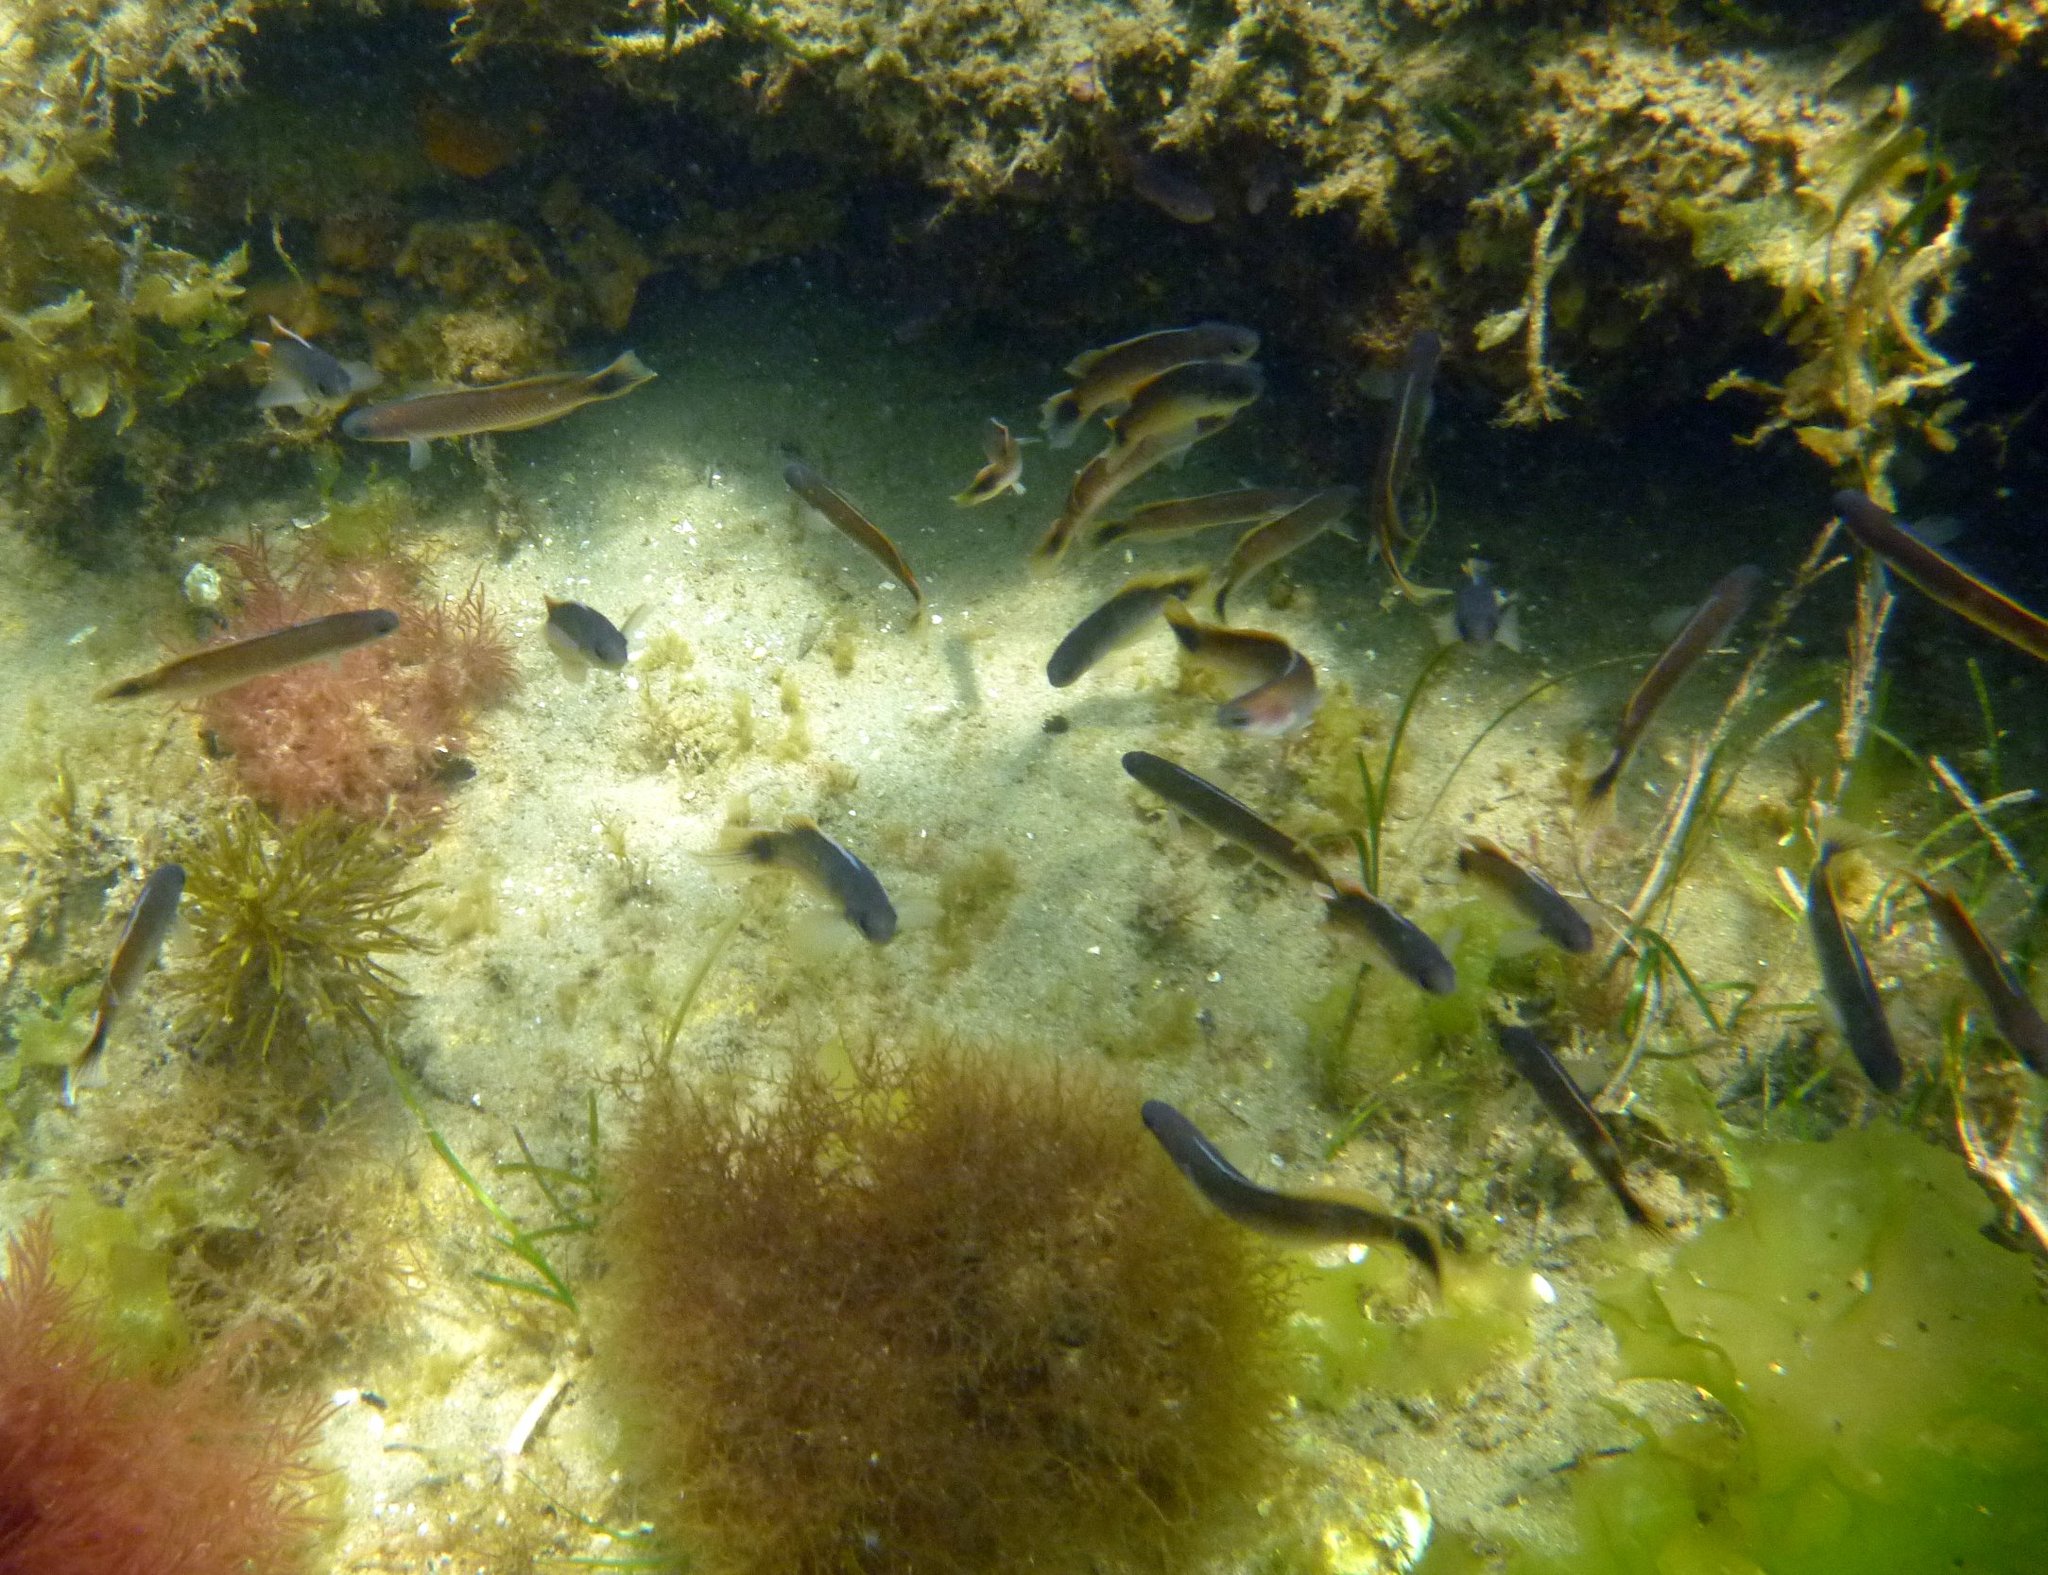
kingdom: Animalia
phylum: Chordata
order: Perciformes
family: Plesiopidae
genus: Trachinops
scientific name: Trachinops caudimaculatus
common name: Blotched-tailed trachinops
